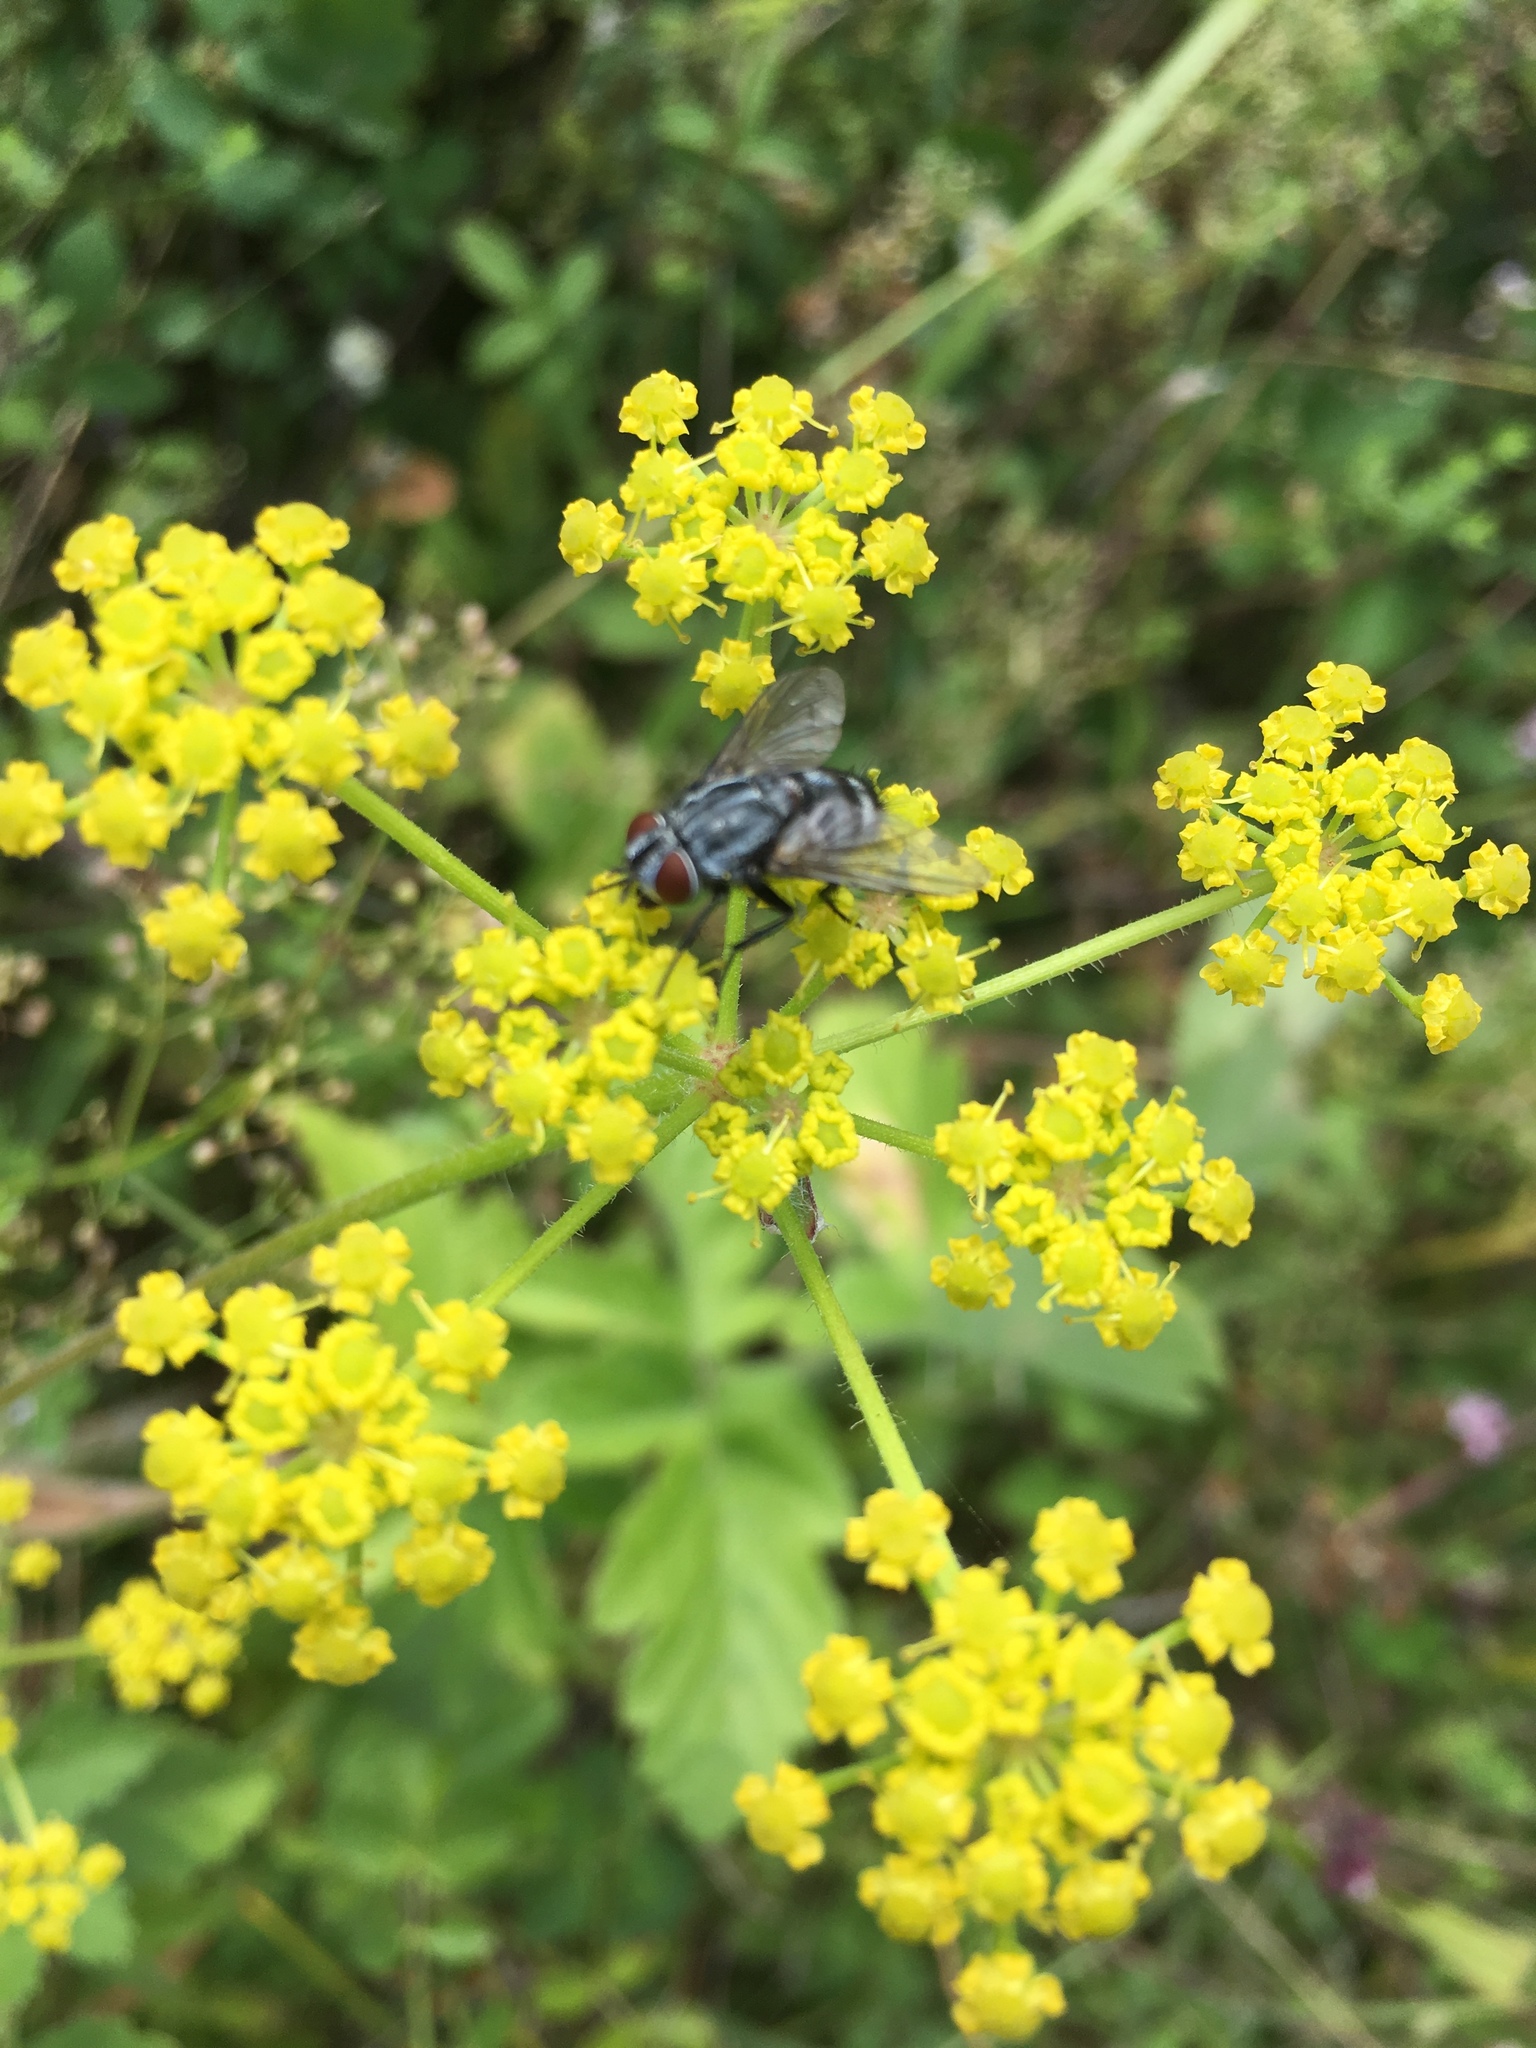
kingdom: Animalia
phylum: Arthropoda
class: Insecta
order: Diptera
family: Tachinidae
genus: Sturmia
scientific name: Sturmia bella
